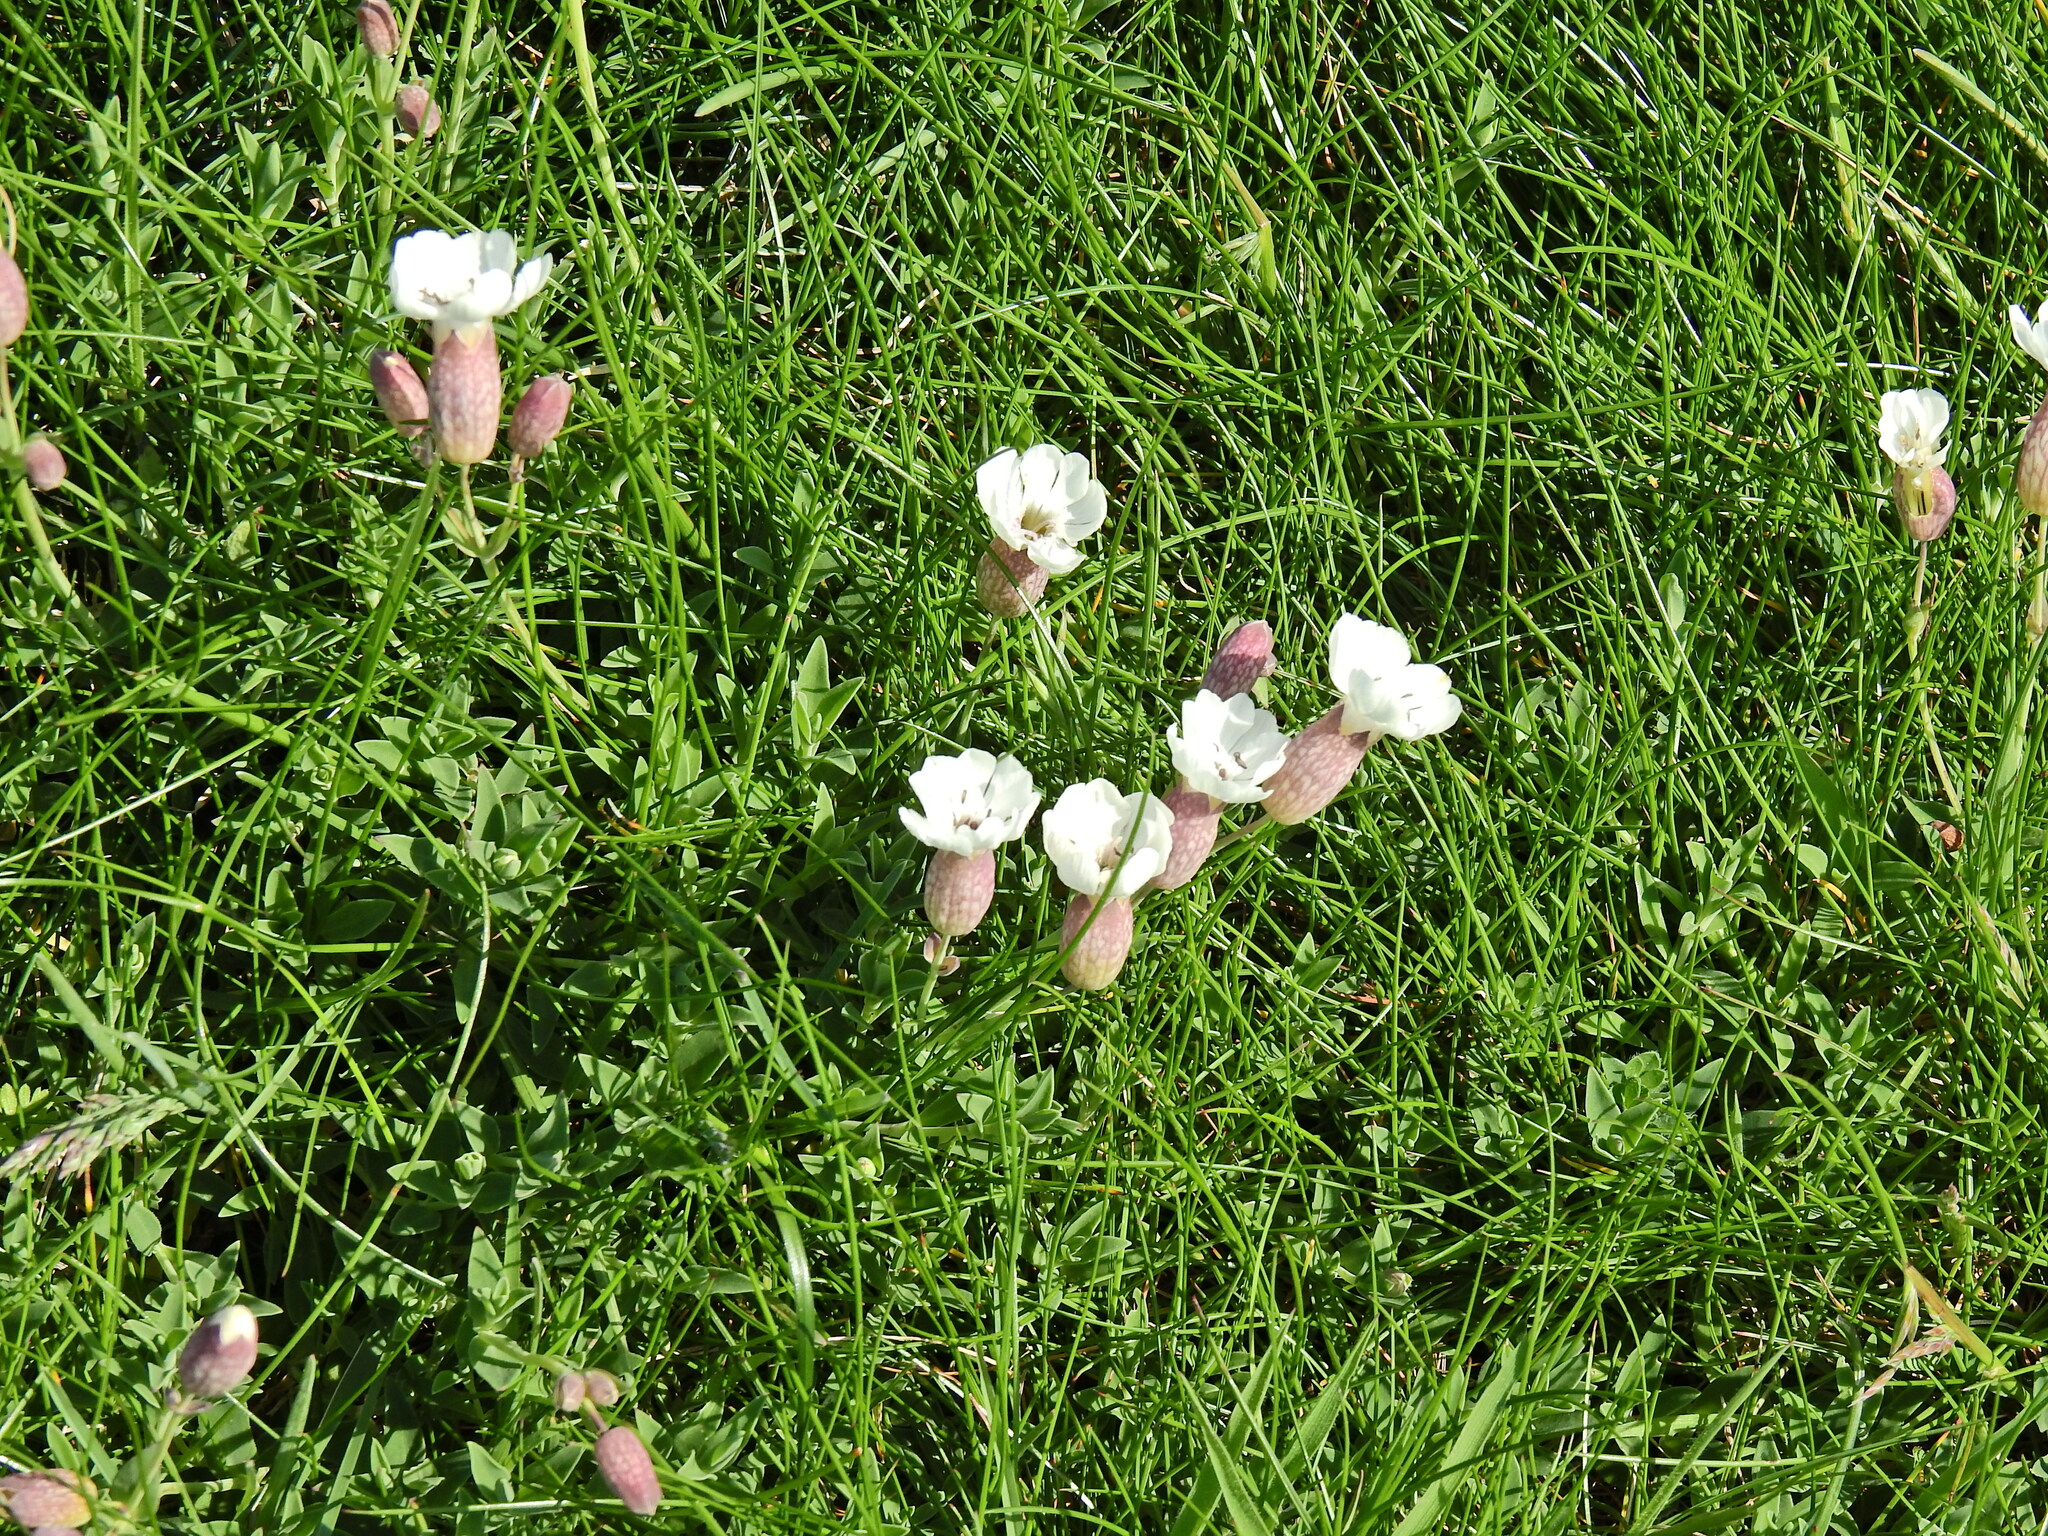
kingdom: Plantae
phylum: Tracheophyta
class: Magnoliopsida
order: Caryophyllales
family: Caryophyllaceae
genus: Silene
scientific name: Silene uniflora
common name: Sea campion
